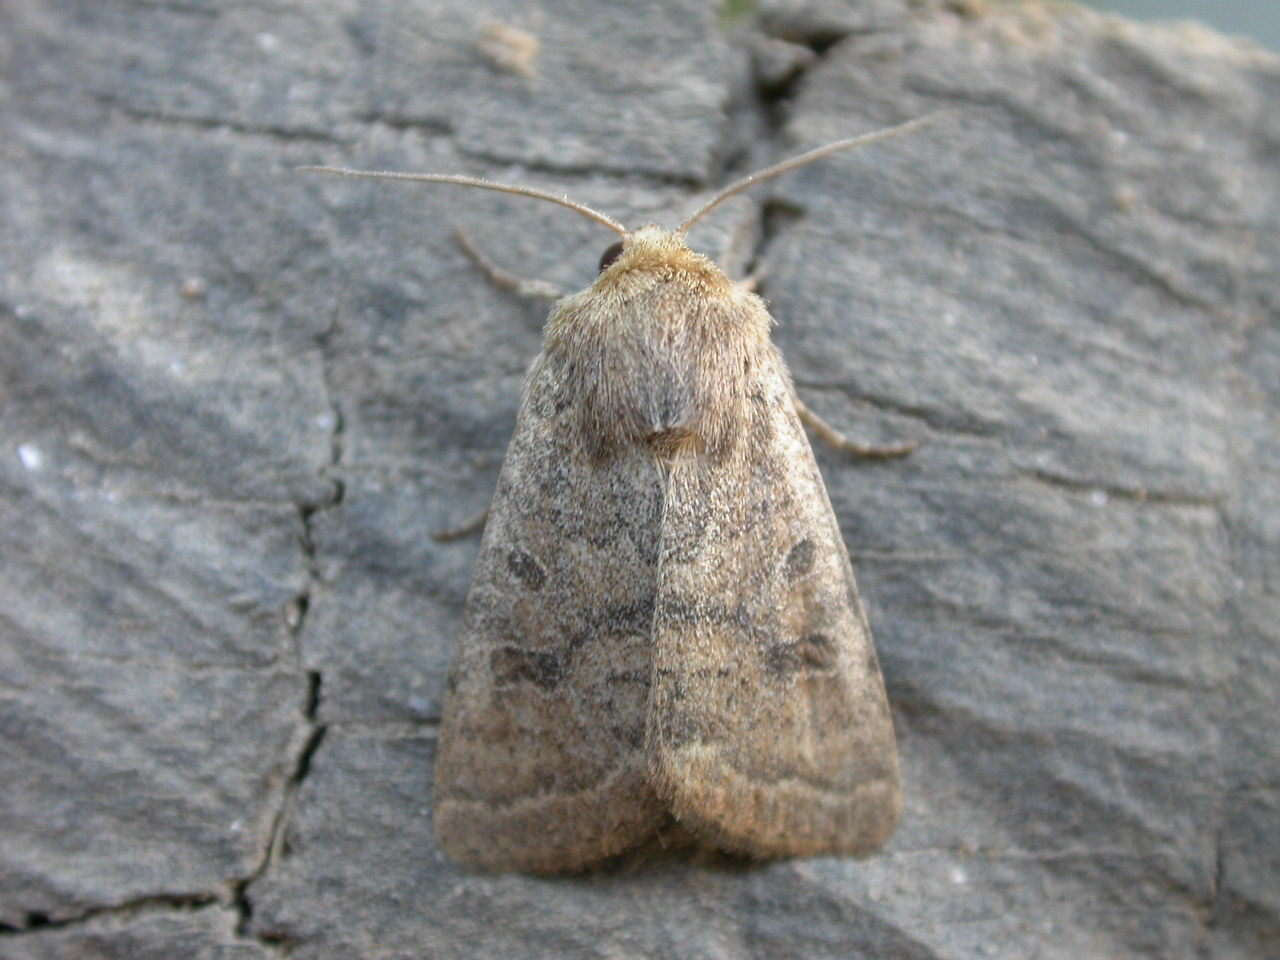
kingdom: Animalia
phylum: Arthropoda
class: Insecta
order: Lepidoptera
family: Noctuidae
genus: Hoplodrina
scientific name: Hoplodrina octogenaria
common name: Uncertain
